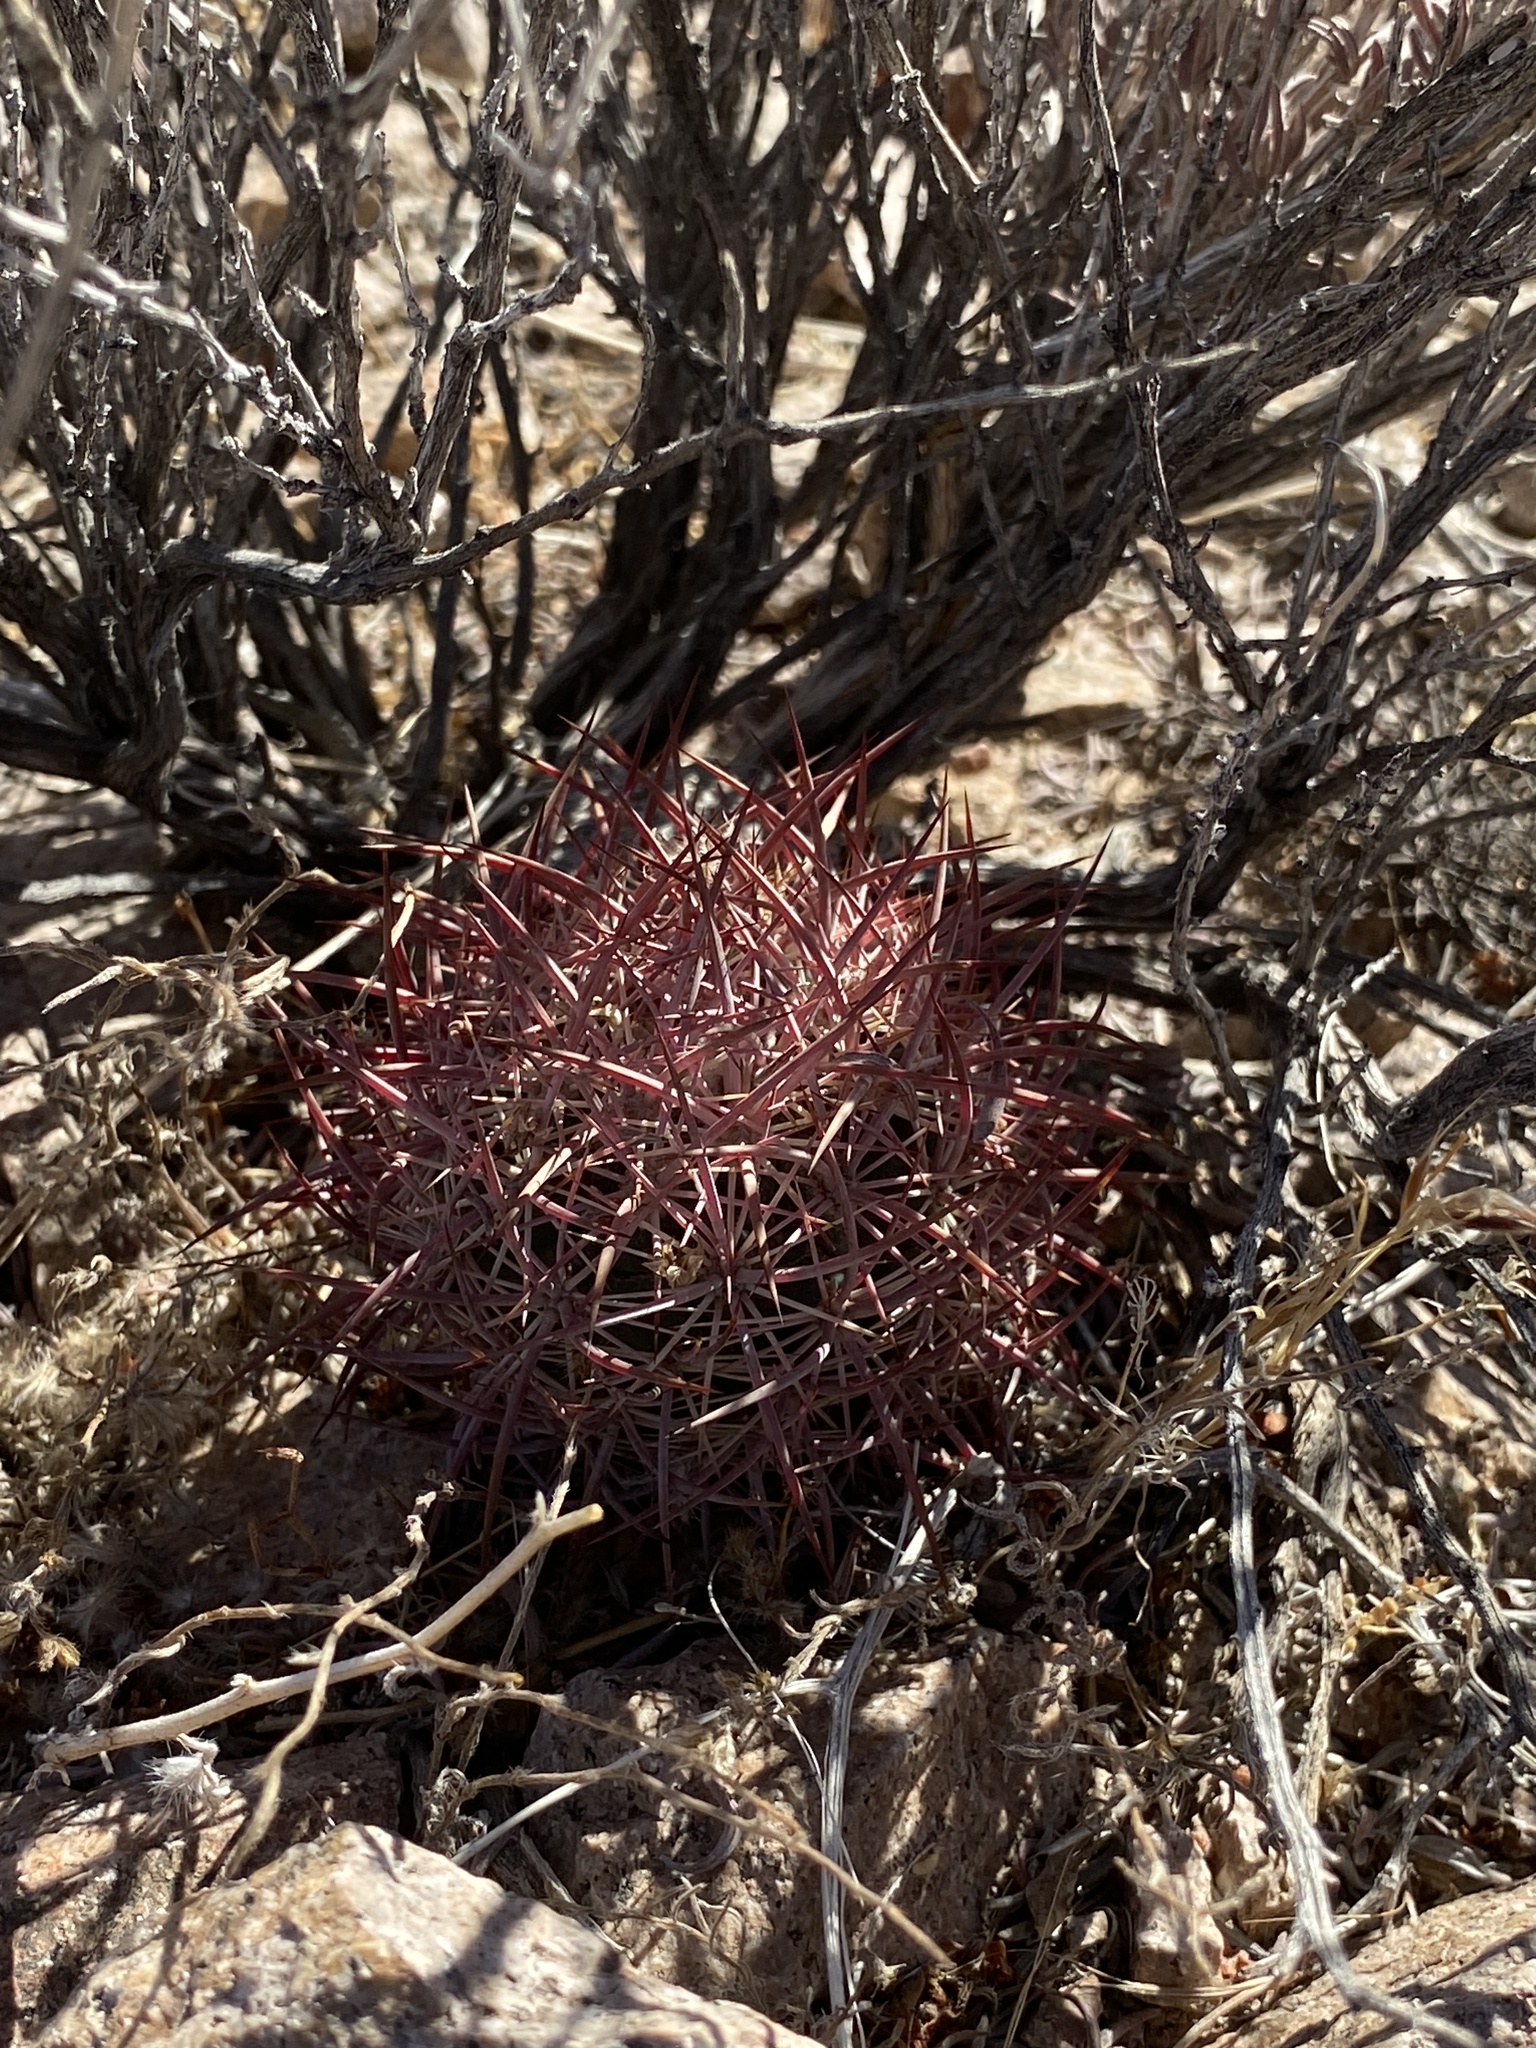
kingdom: Plantae
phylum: Tracheophyta
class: Magnoliopsida
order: Caryophyllales
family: Cactaceae
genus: Sclerocactus
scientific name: Sclerocactus johnsonii
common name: Eight-spine fishhook cactus
